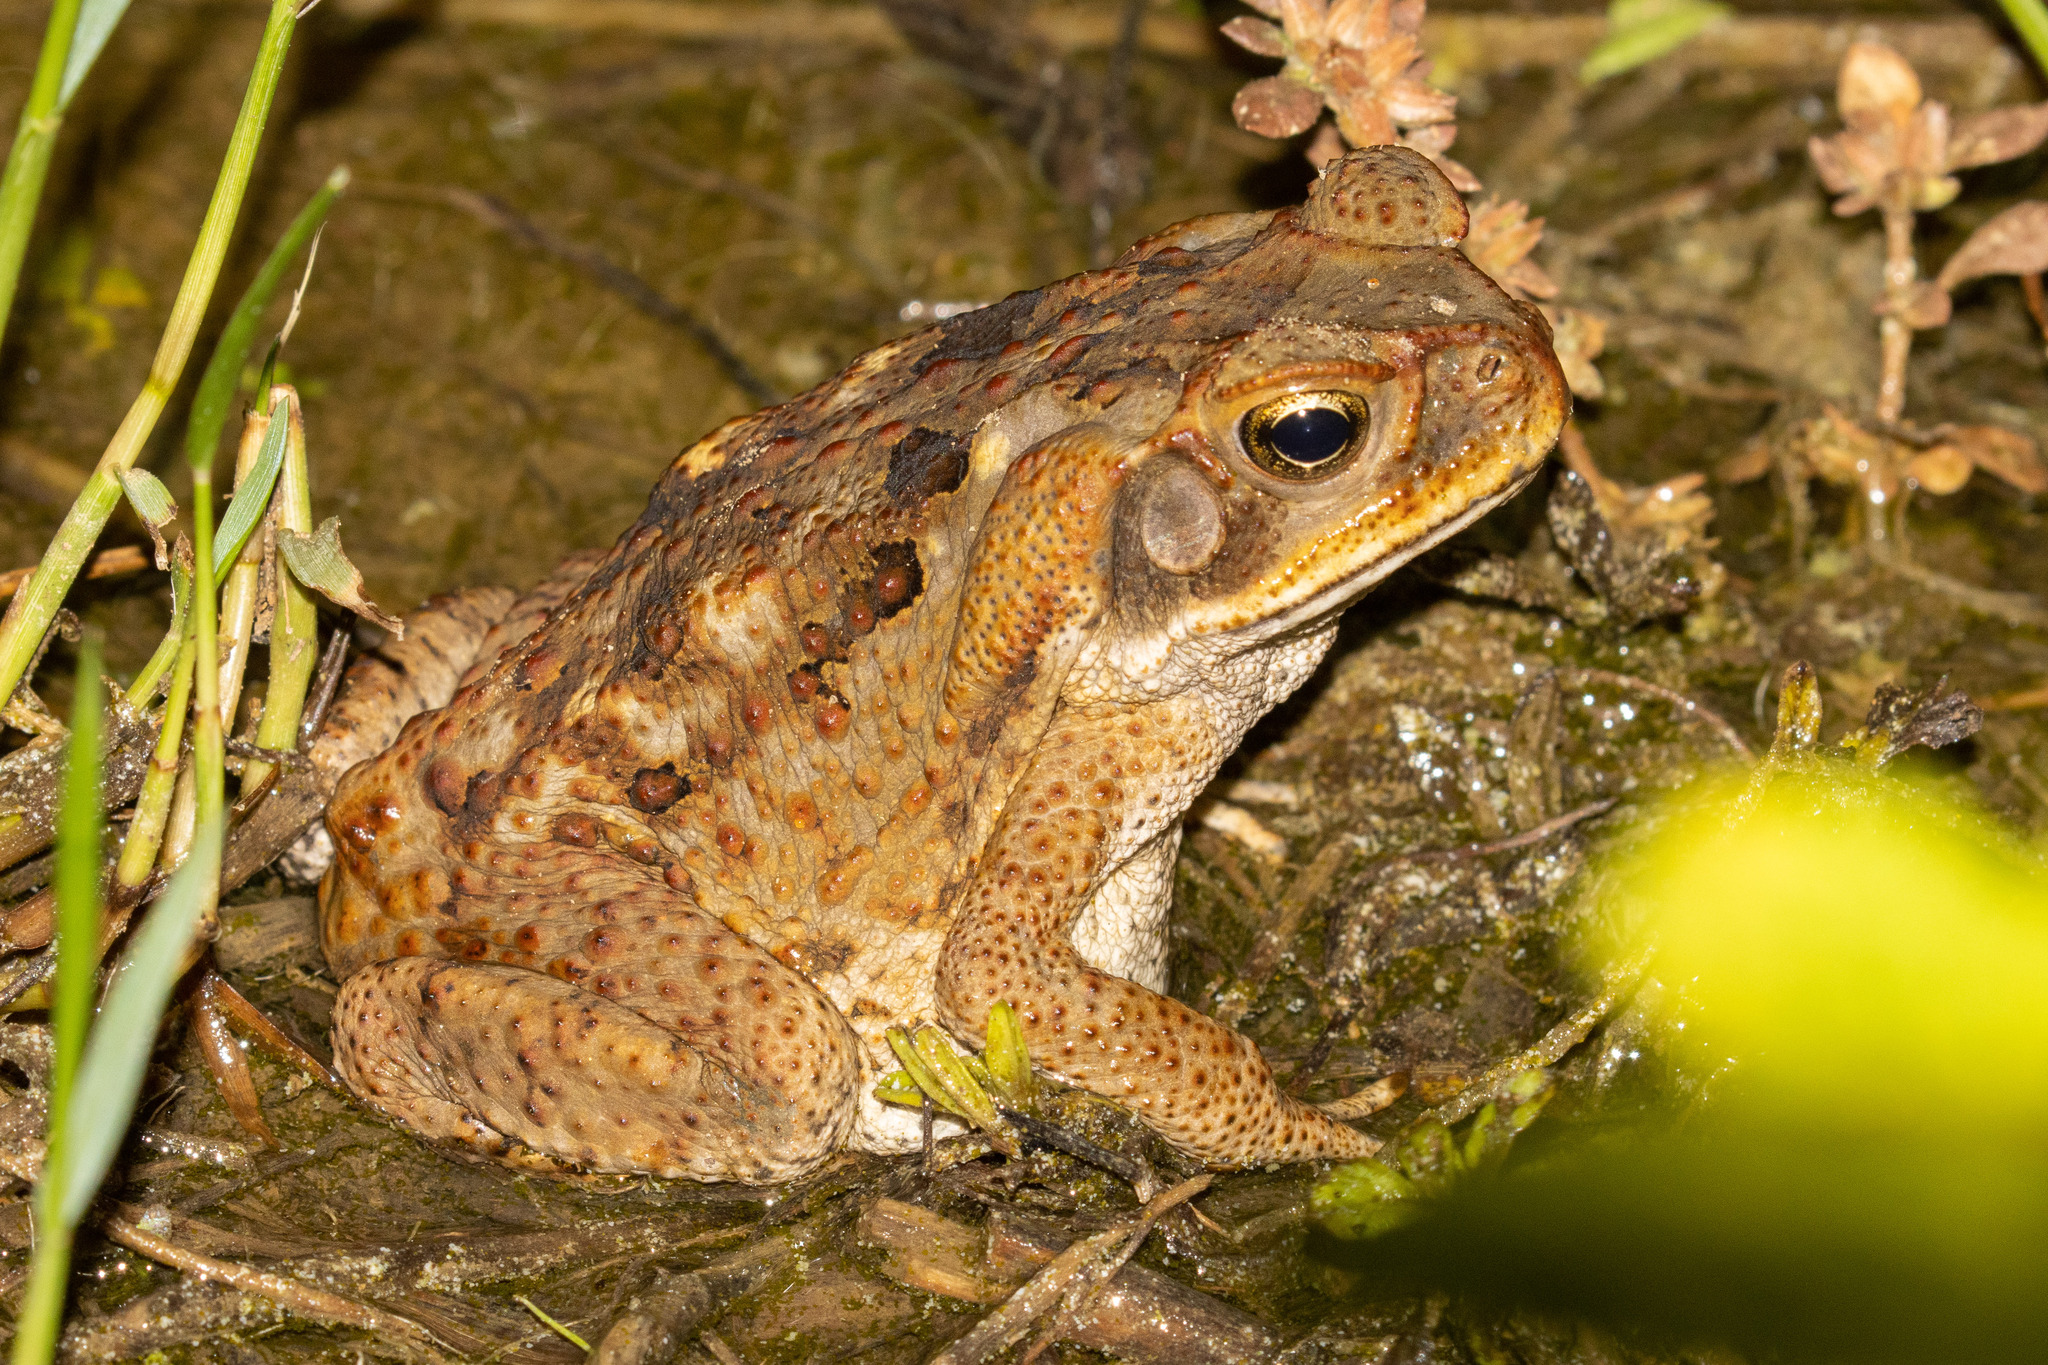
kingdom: Animalia
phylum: Chordata
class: Amphibia
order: Anura
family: Bufonidae
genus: Rhinella
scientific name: Rhinella diptycha
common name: Cope's toad
